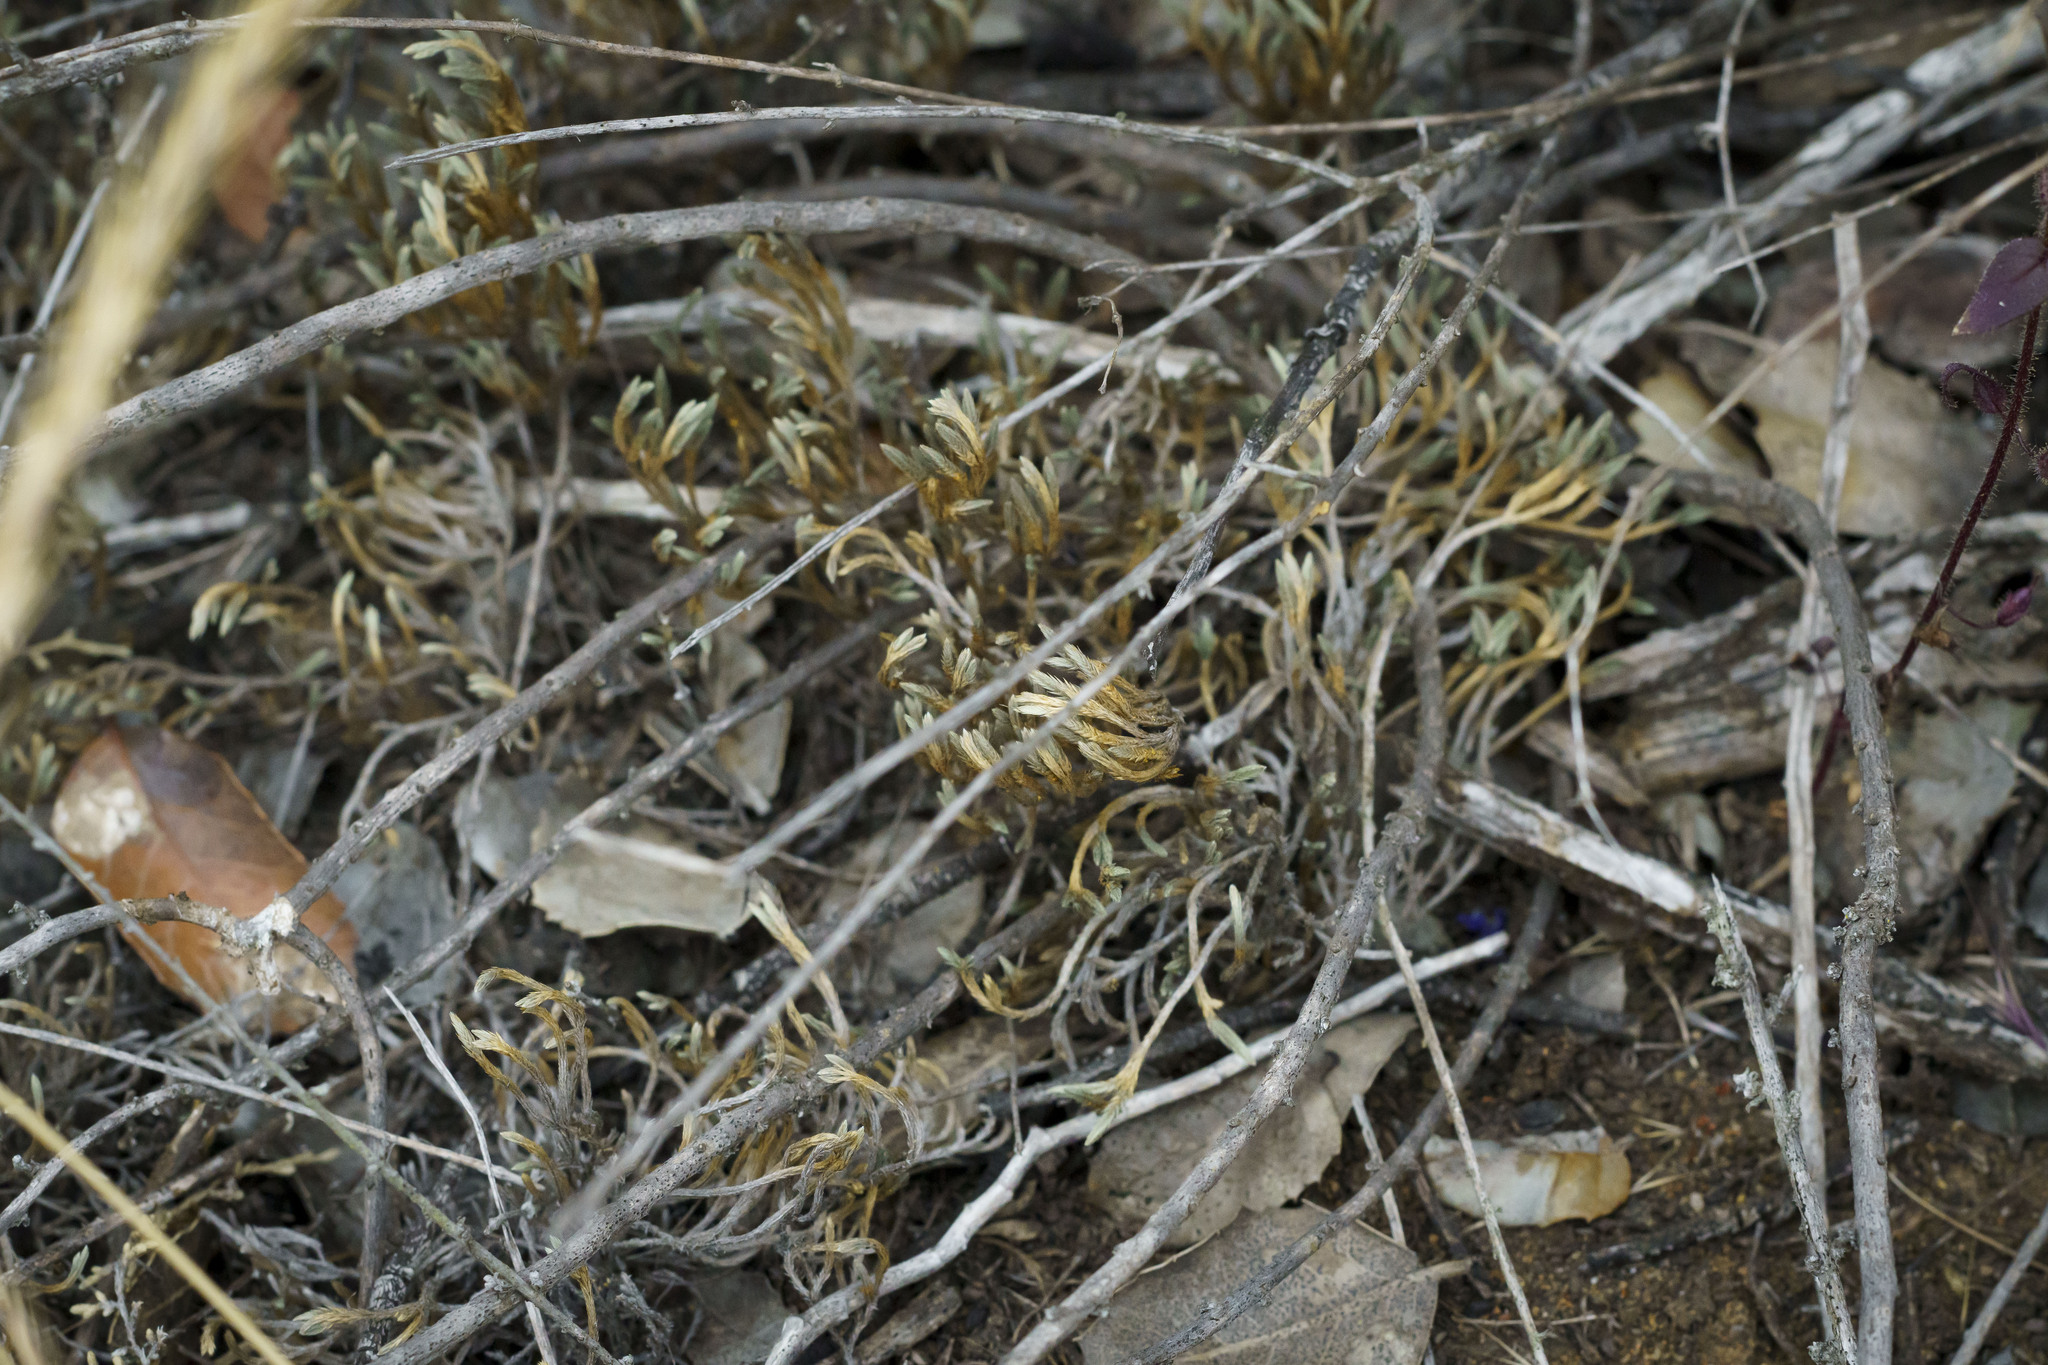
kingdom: Plantae
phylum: Tracheophyta
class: Lycopodiopsida
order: Selaginellales
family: Selaginellaceae
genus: Selaginella
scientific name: Selaginella bigelovii
